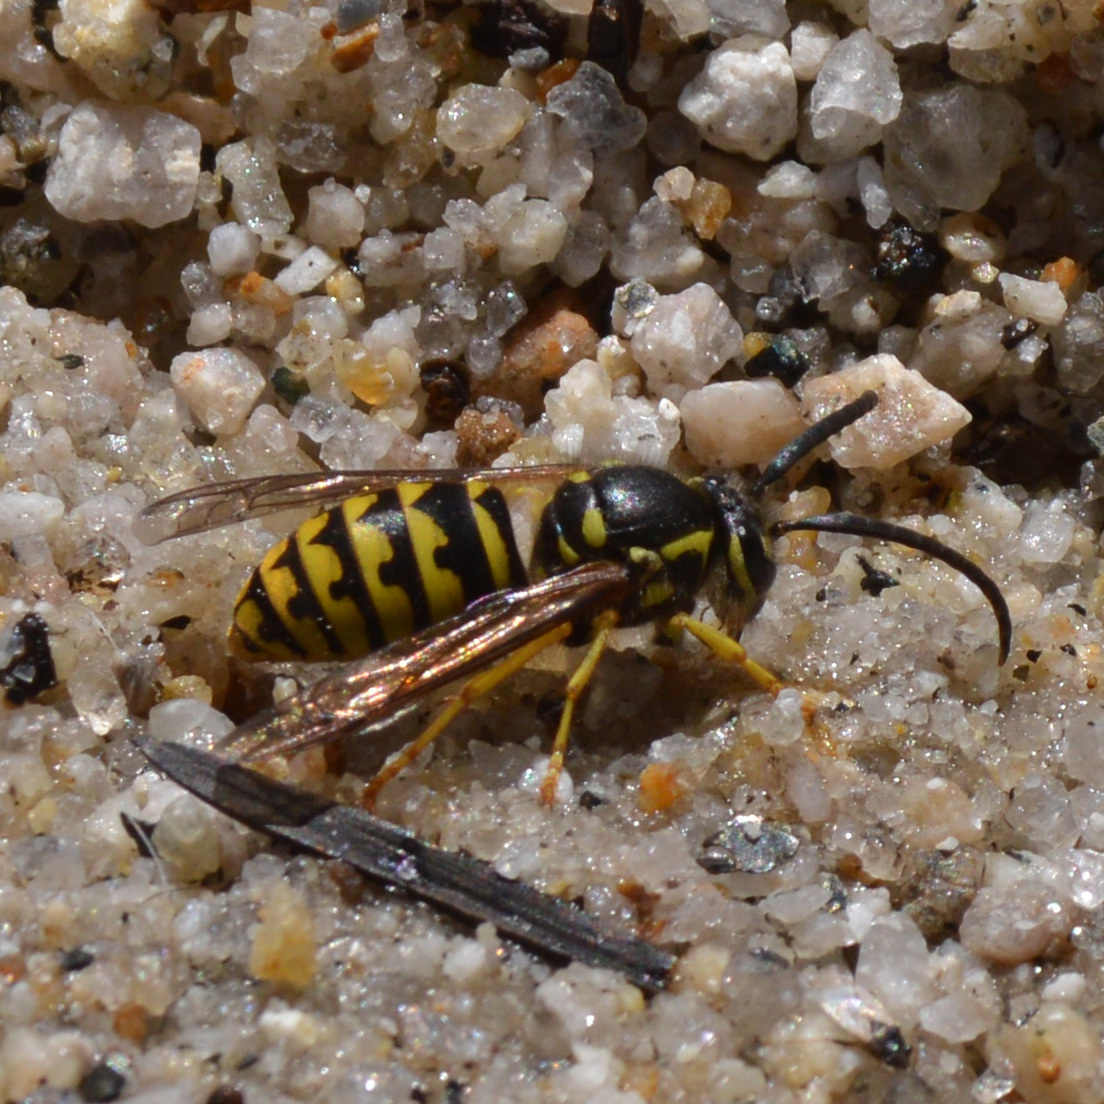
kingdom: Animalia
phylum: Arthropoda
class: Insecta
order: Hymenoptera
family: Vespidae
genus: Dolichovespula
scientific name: Dolichovespula arenaria
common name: Aerial yellowjacket
